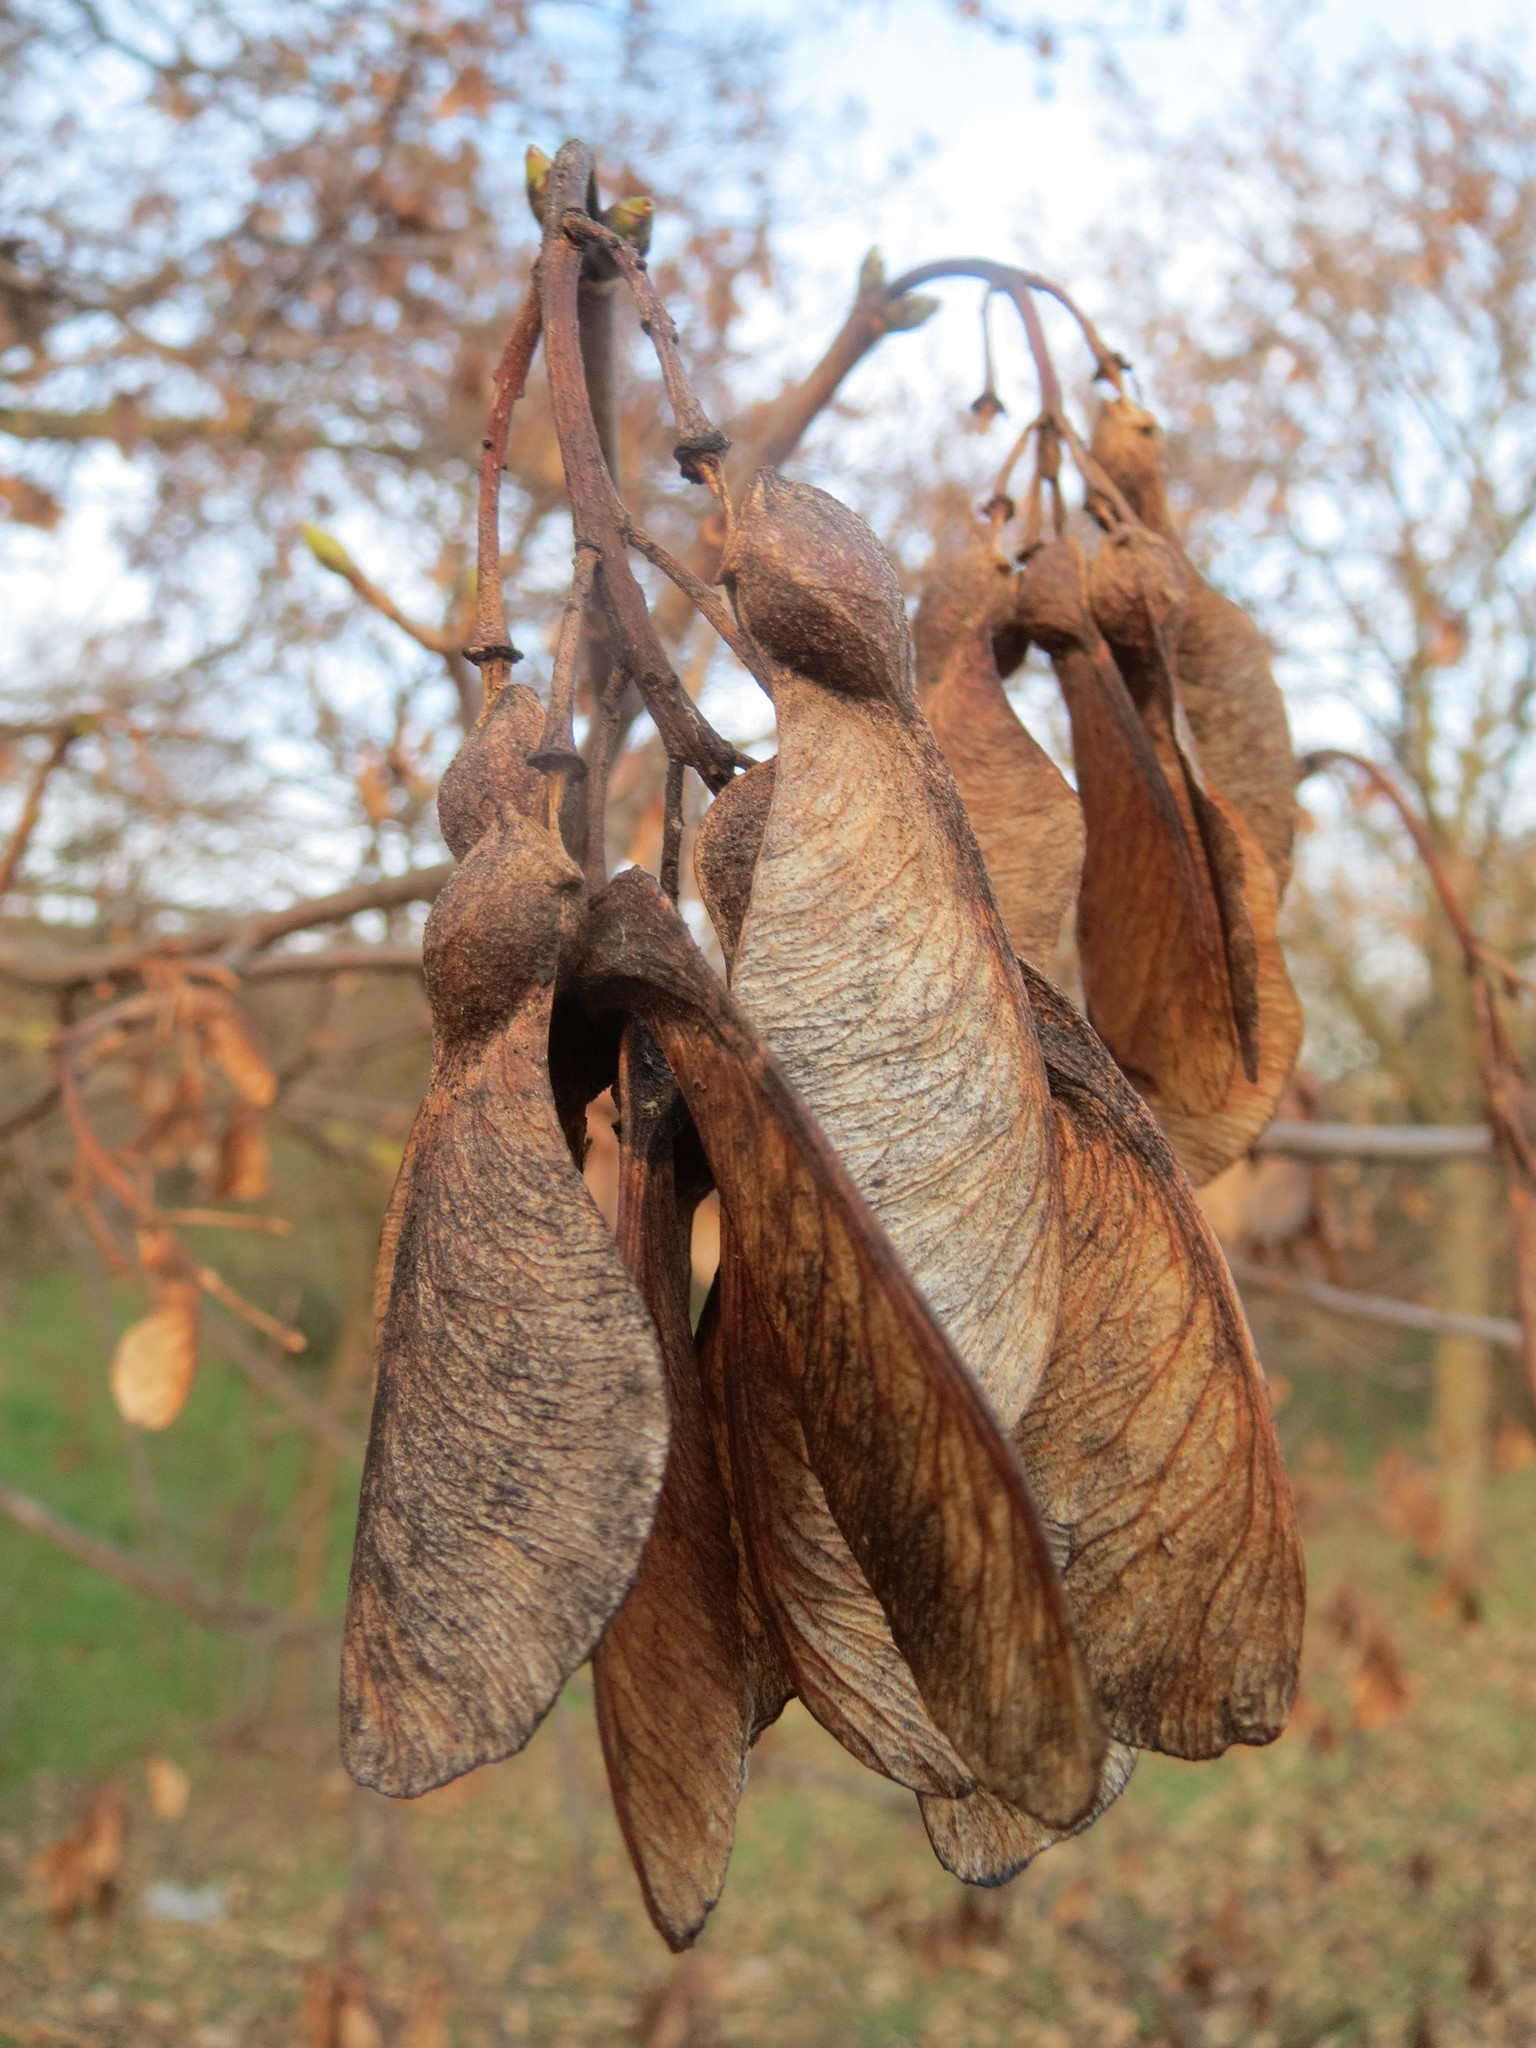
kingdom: Plantae
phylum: Tracheophyta
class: Magnoliopsida
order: Sapindales
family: Sapindaceae
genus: Acer
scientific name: Acer pseudoplatanus
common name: Sycamore
